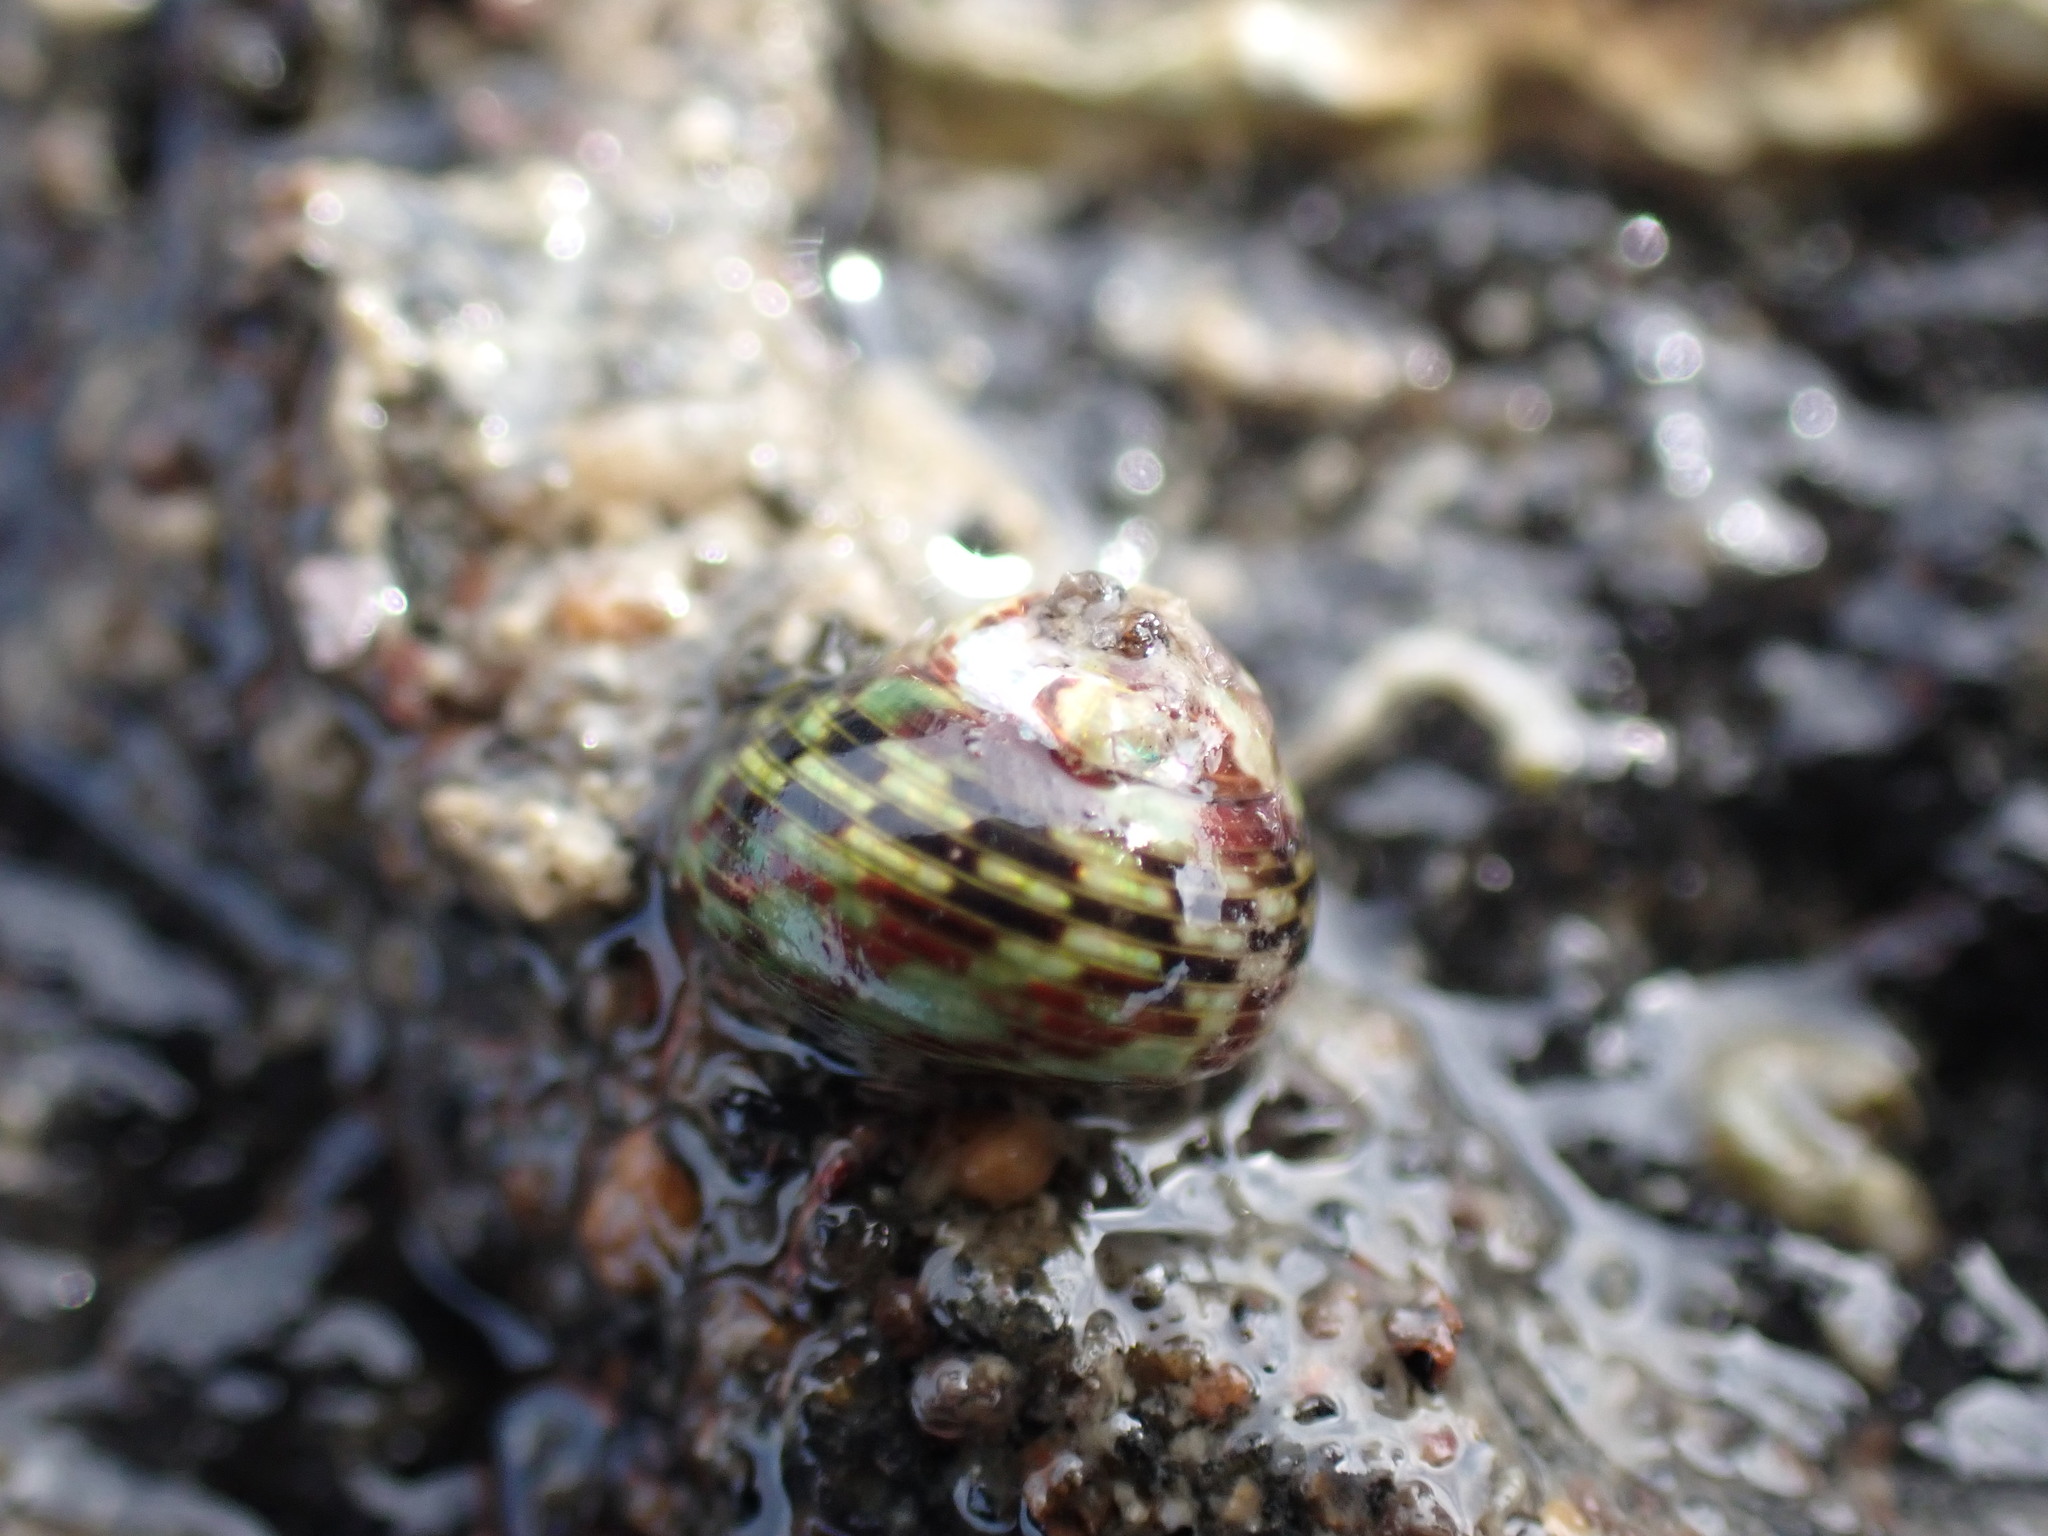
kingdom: Animalia
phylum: Mollusca
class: Gastropoda
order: Trochida
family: Trochidae
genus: Micrelenchus
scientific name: Micrelenchus tessellatus
